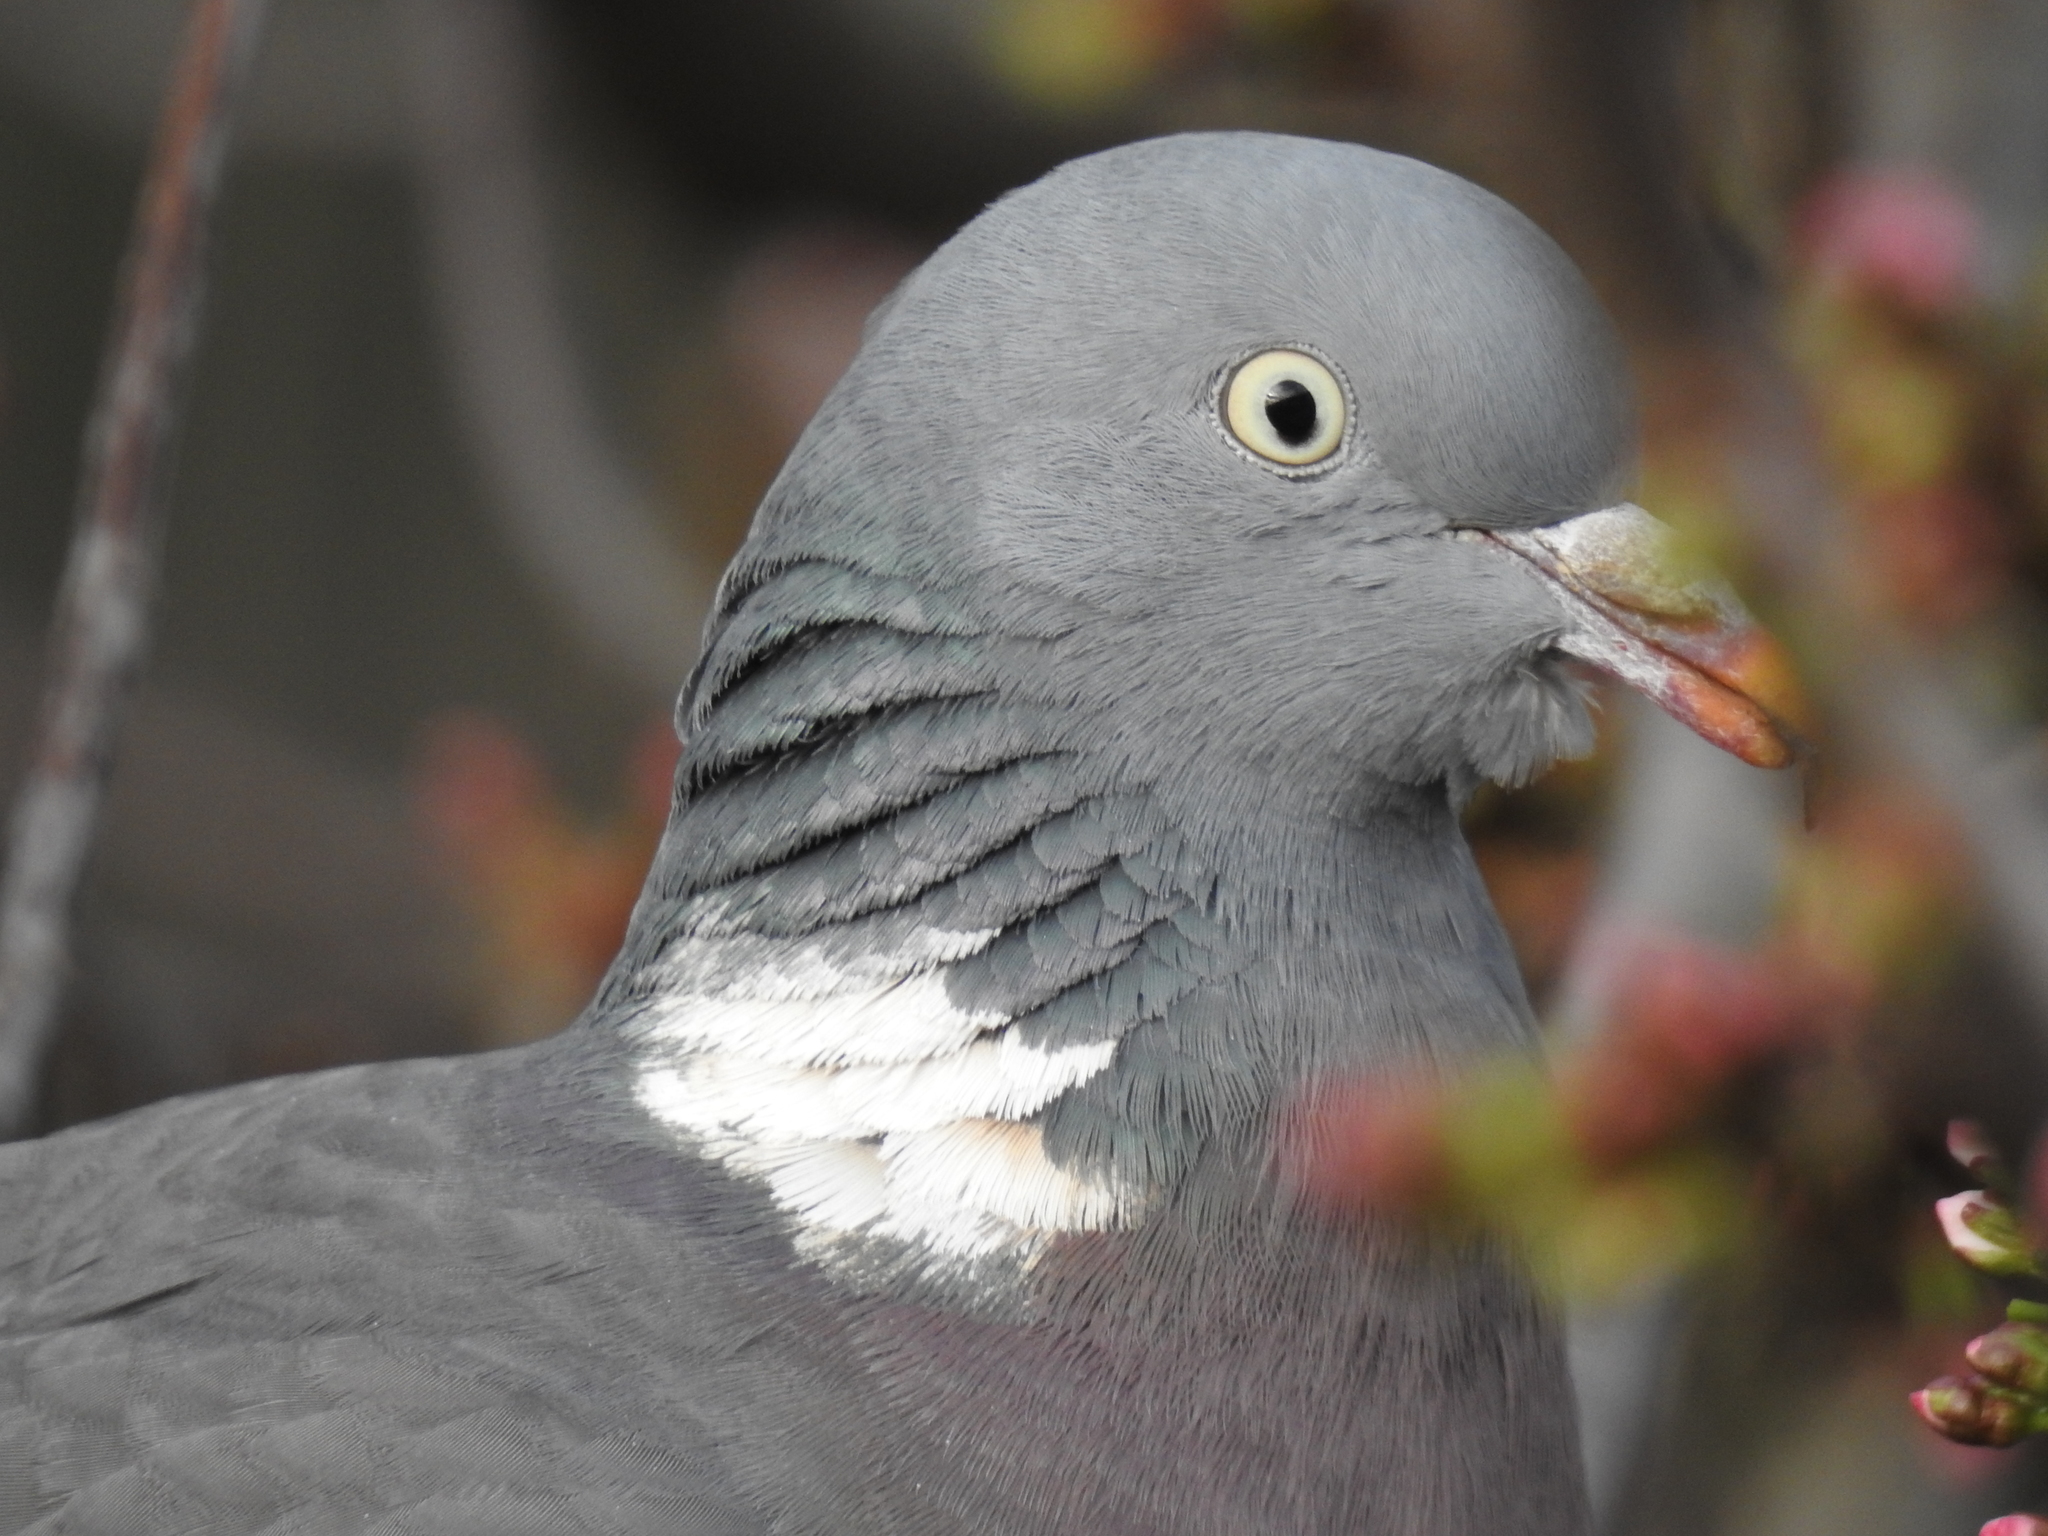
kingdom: Animalia
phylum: Chordata
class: Aves
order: Columbiformes
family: Columbidae
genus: Columba
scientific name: Columba palumbus
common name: Common wood pigeon
